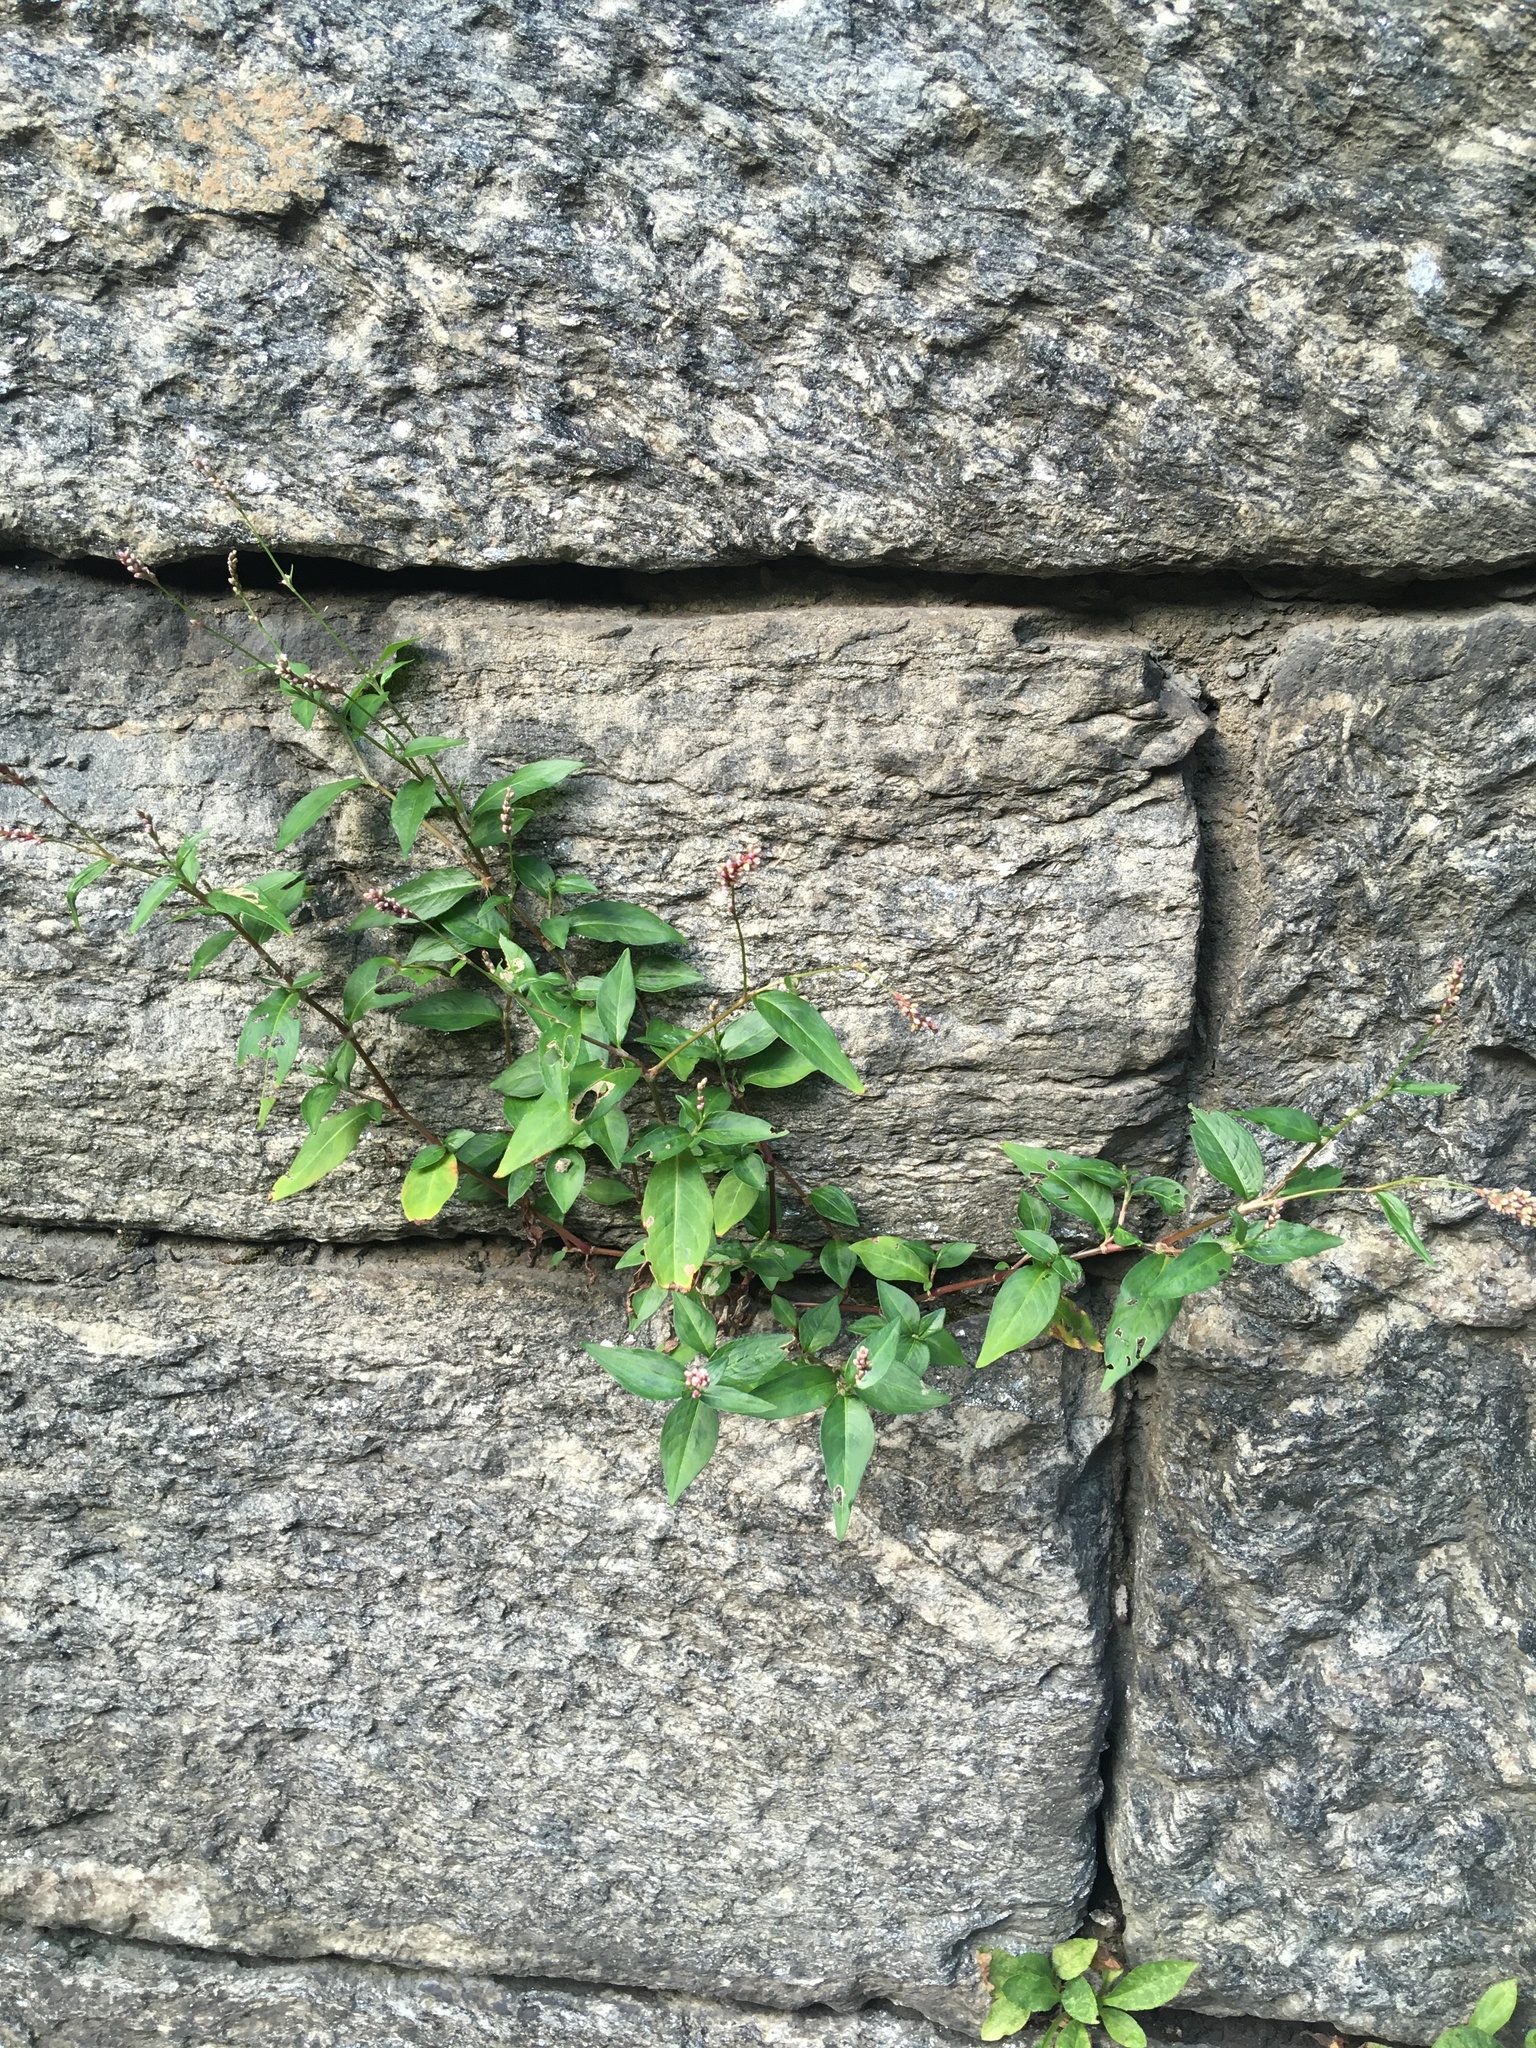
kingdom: Plantae
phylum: Tracheophyta
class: Magnoliopsida
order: Caryophyllales
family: Polygonaceae
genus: Persicaria
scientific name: Persicaria longiseta
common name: Bristly lady's-thumb
